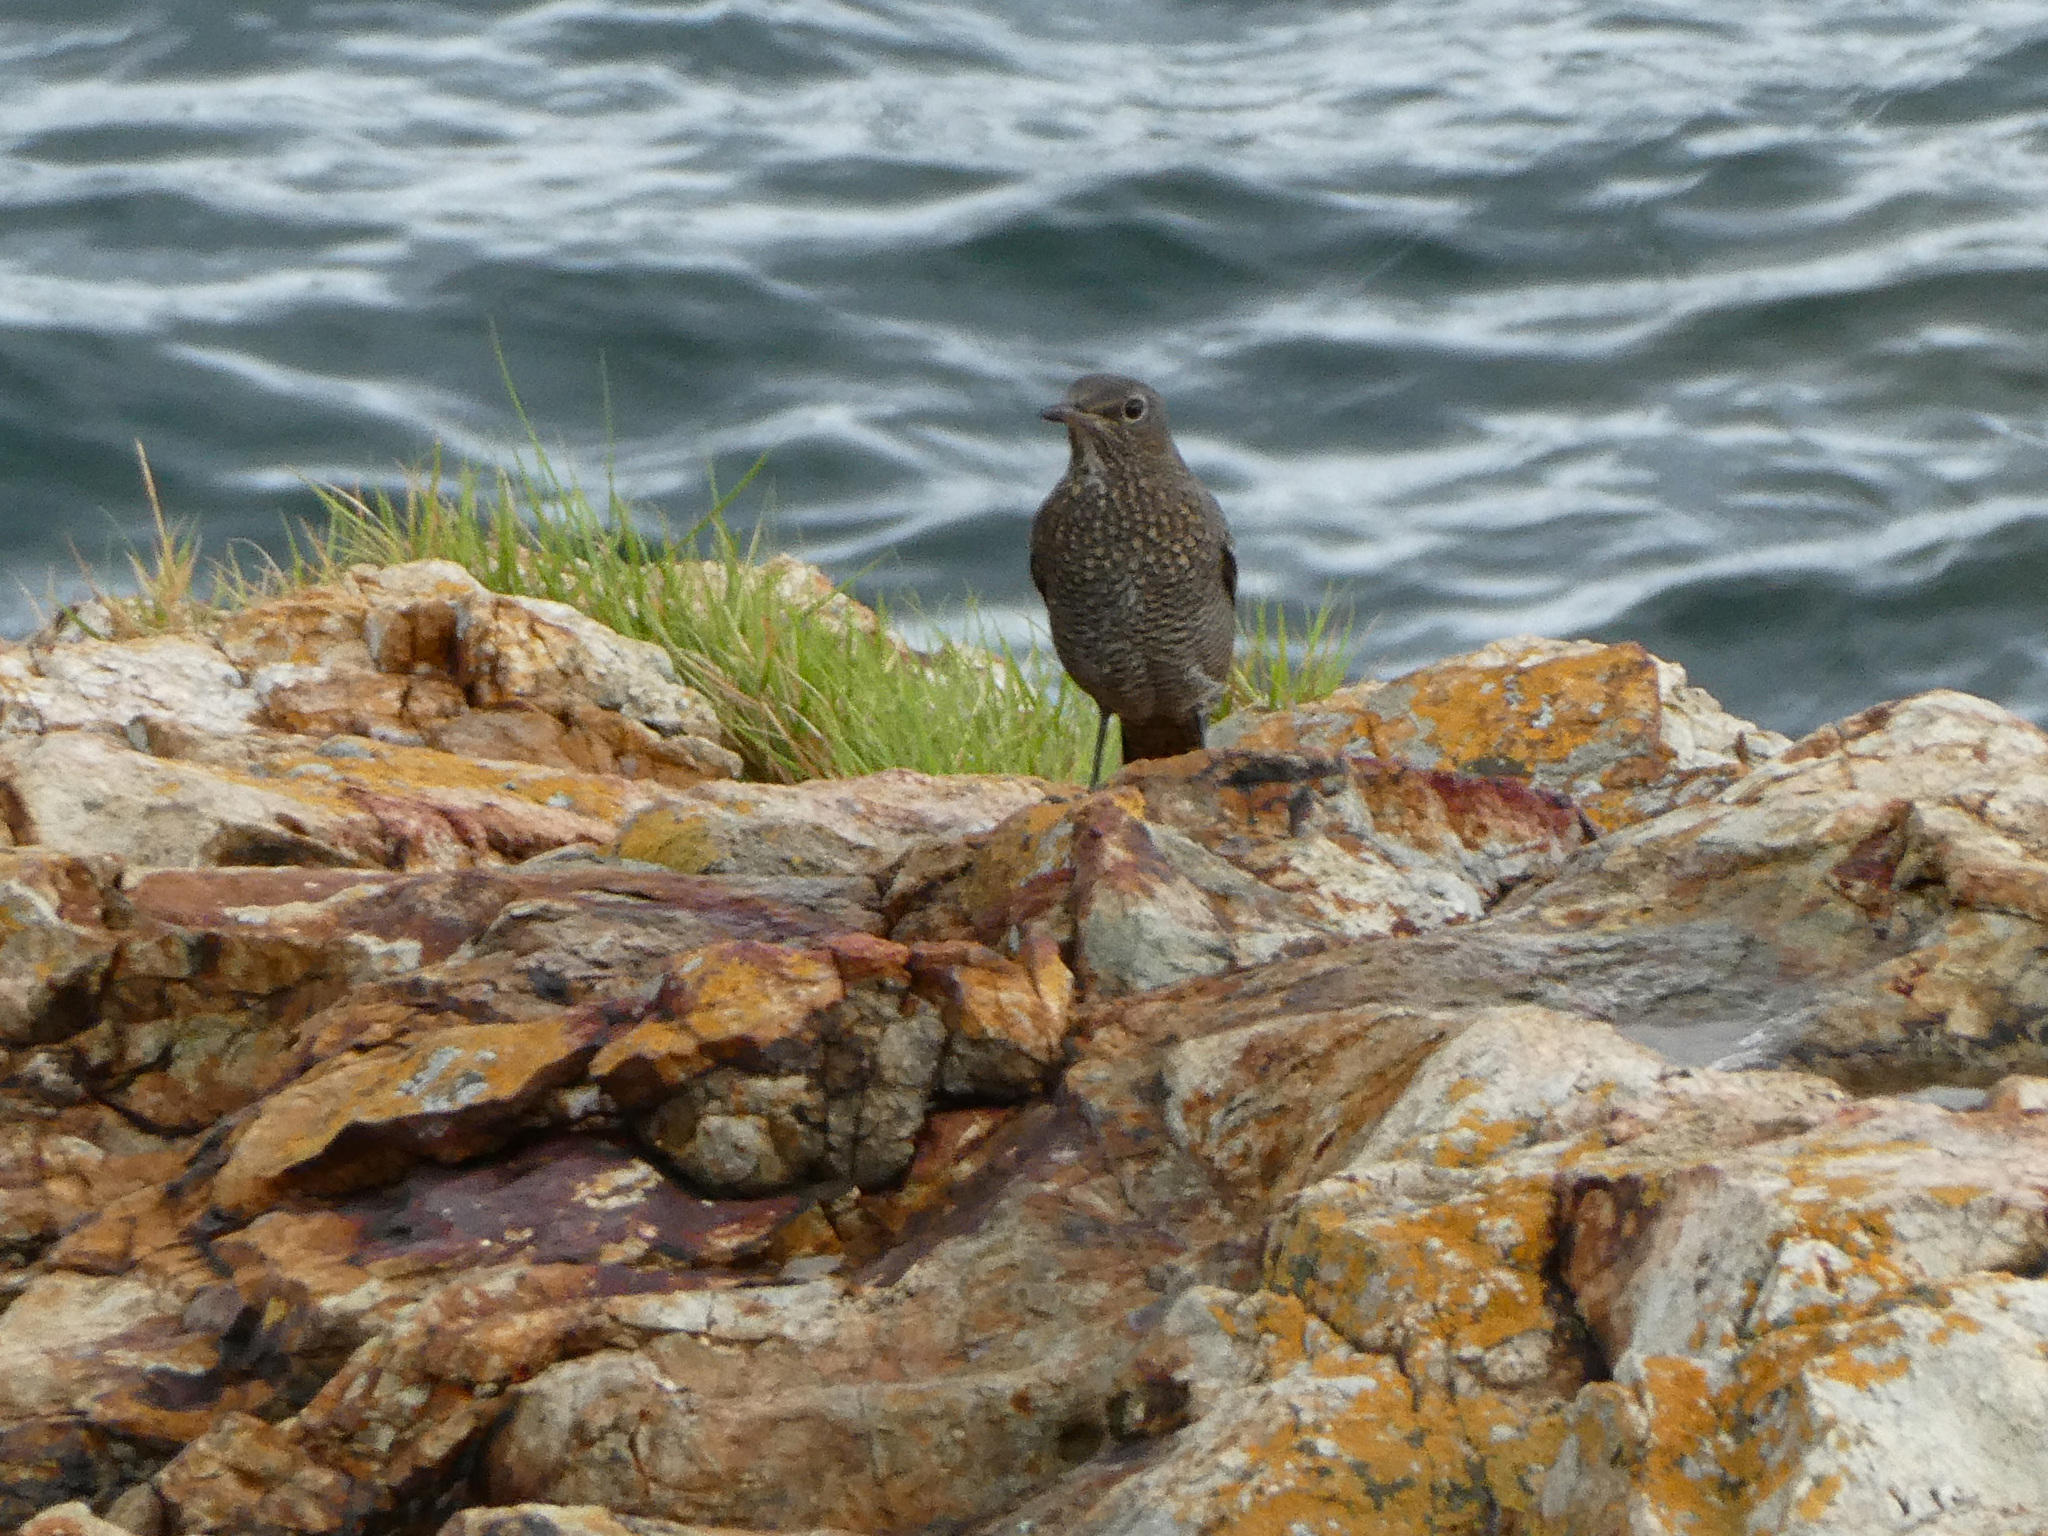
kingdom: Animalia
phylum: Chordata
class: Aves
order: Passeriformes
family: Muscicapidae
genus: Monticola
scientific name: Monticola solitarius
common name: Blue rock thrush
